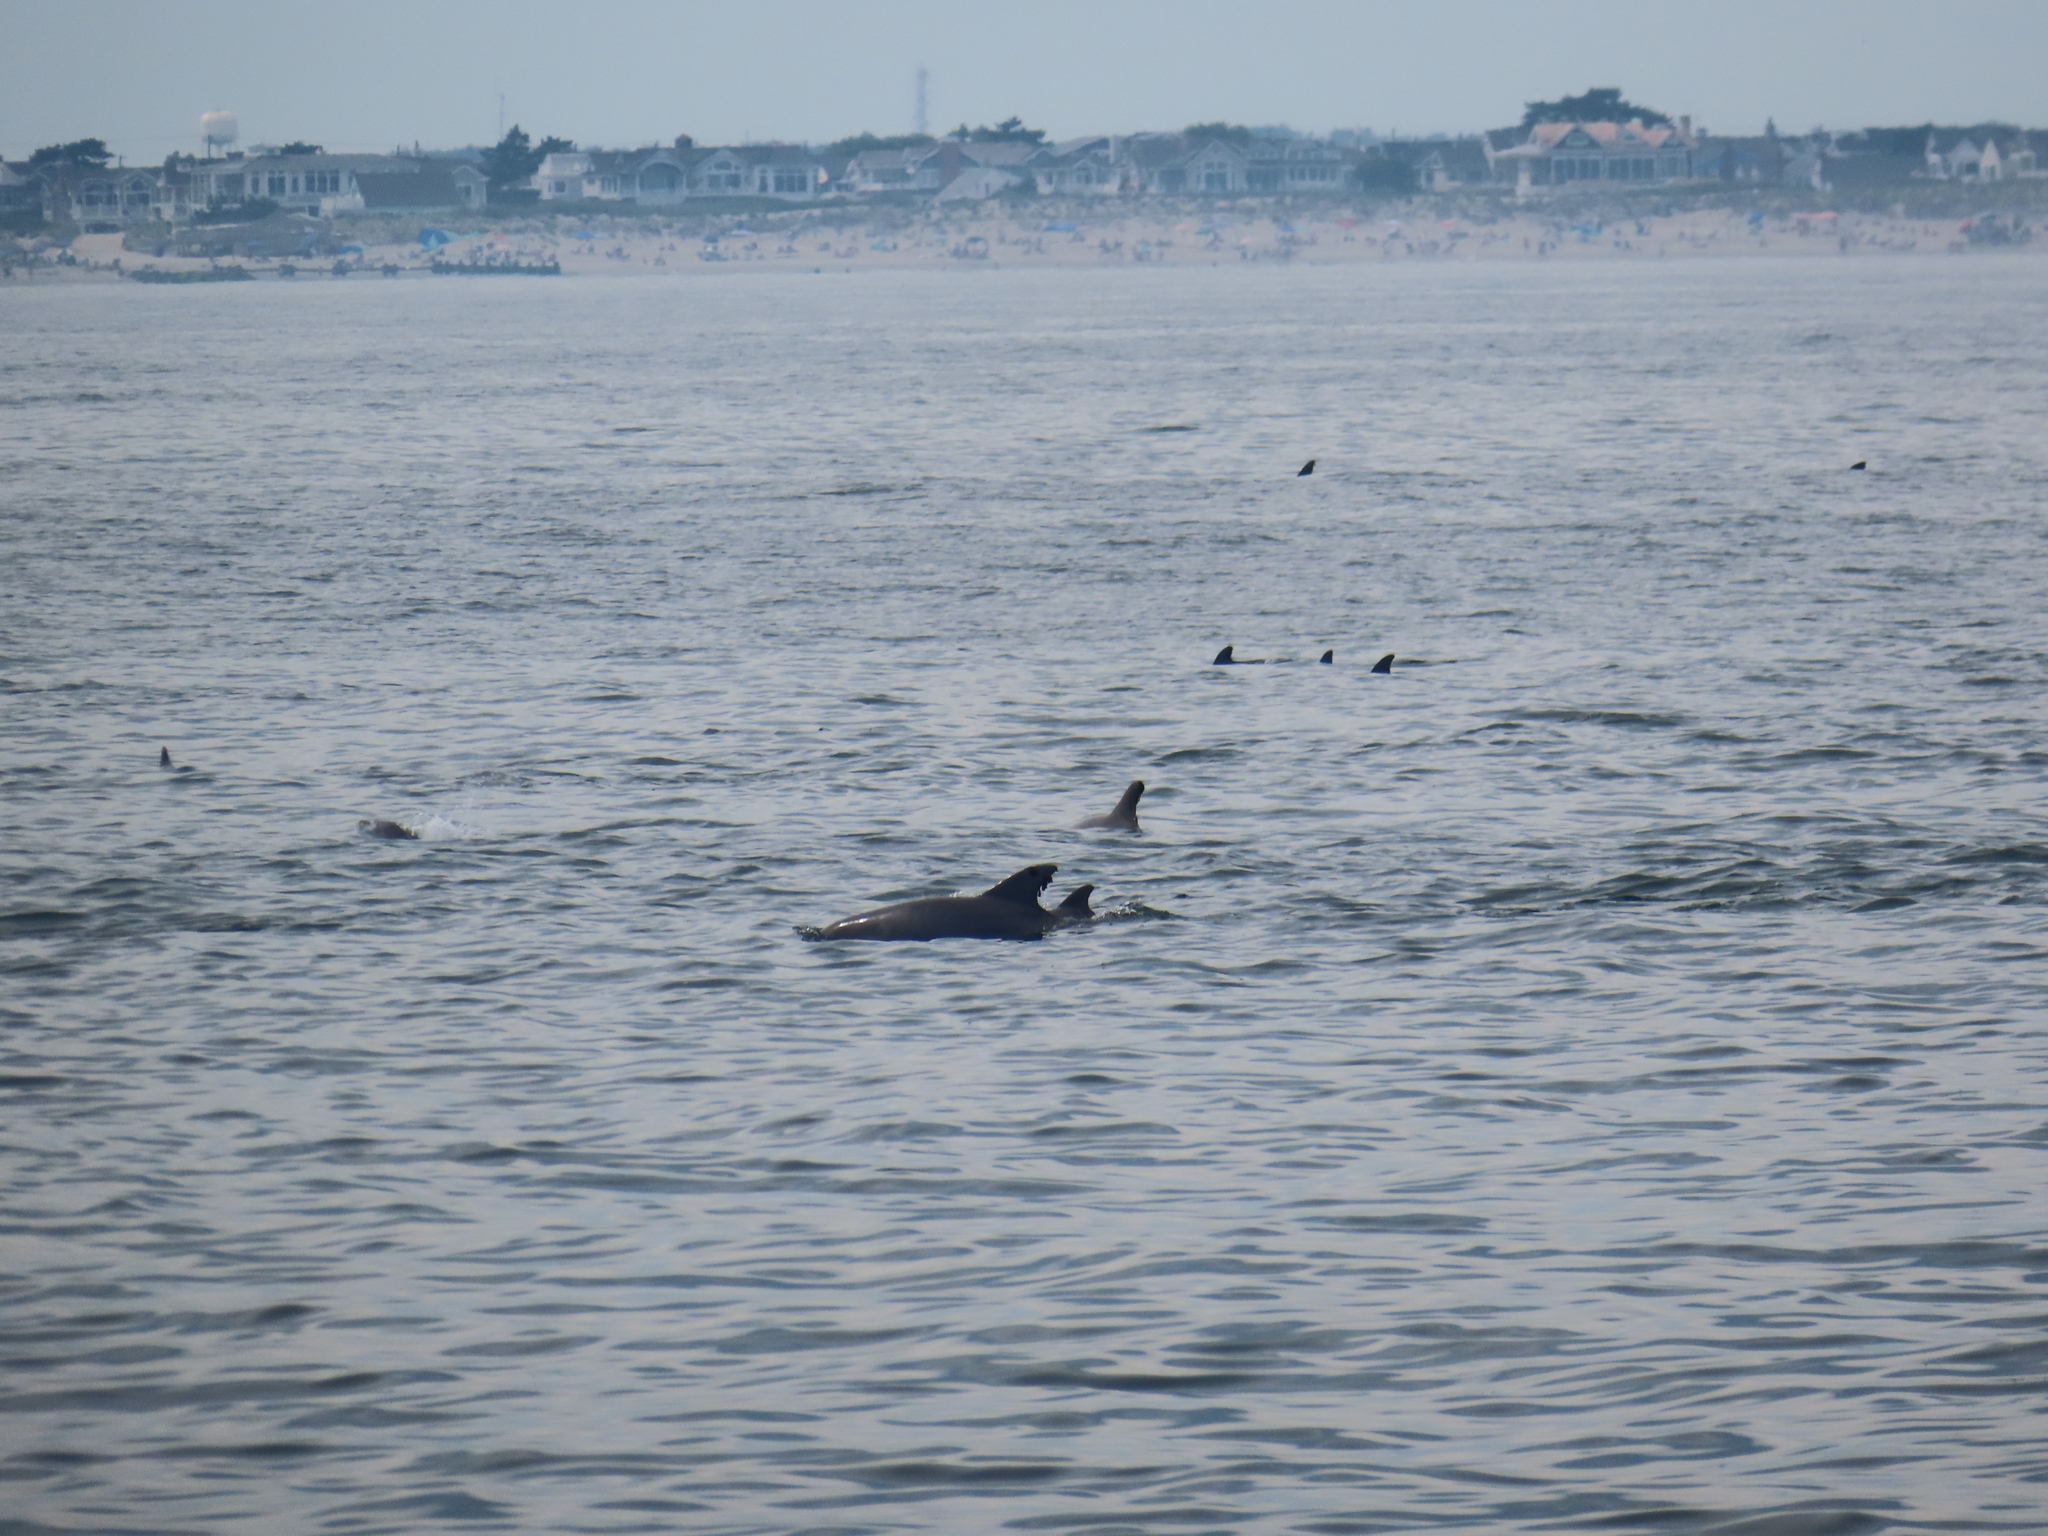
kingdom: Animalia
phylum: Chordata
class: Mammalia
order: Cetacea
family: Delphinidae
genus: Tursiops
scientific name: Tursiops truncatus
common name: Bottlenose dolphin
